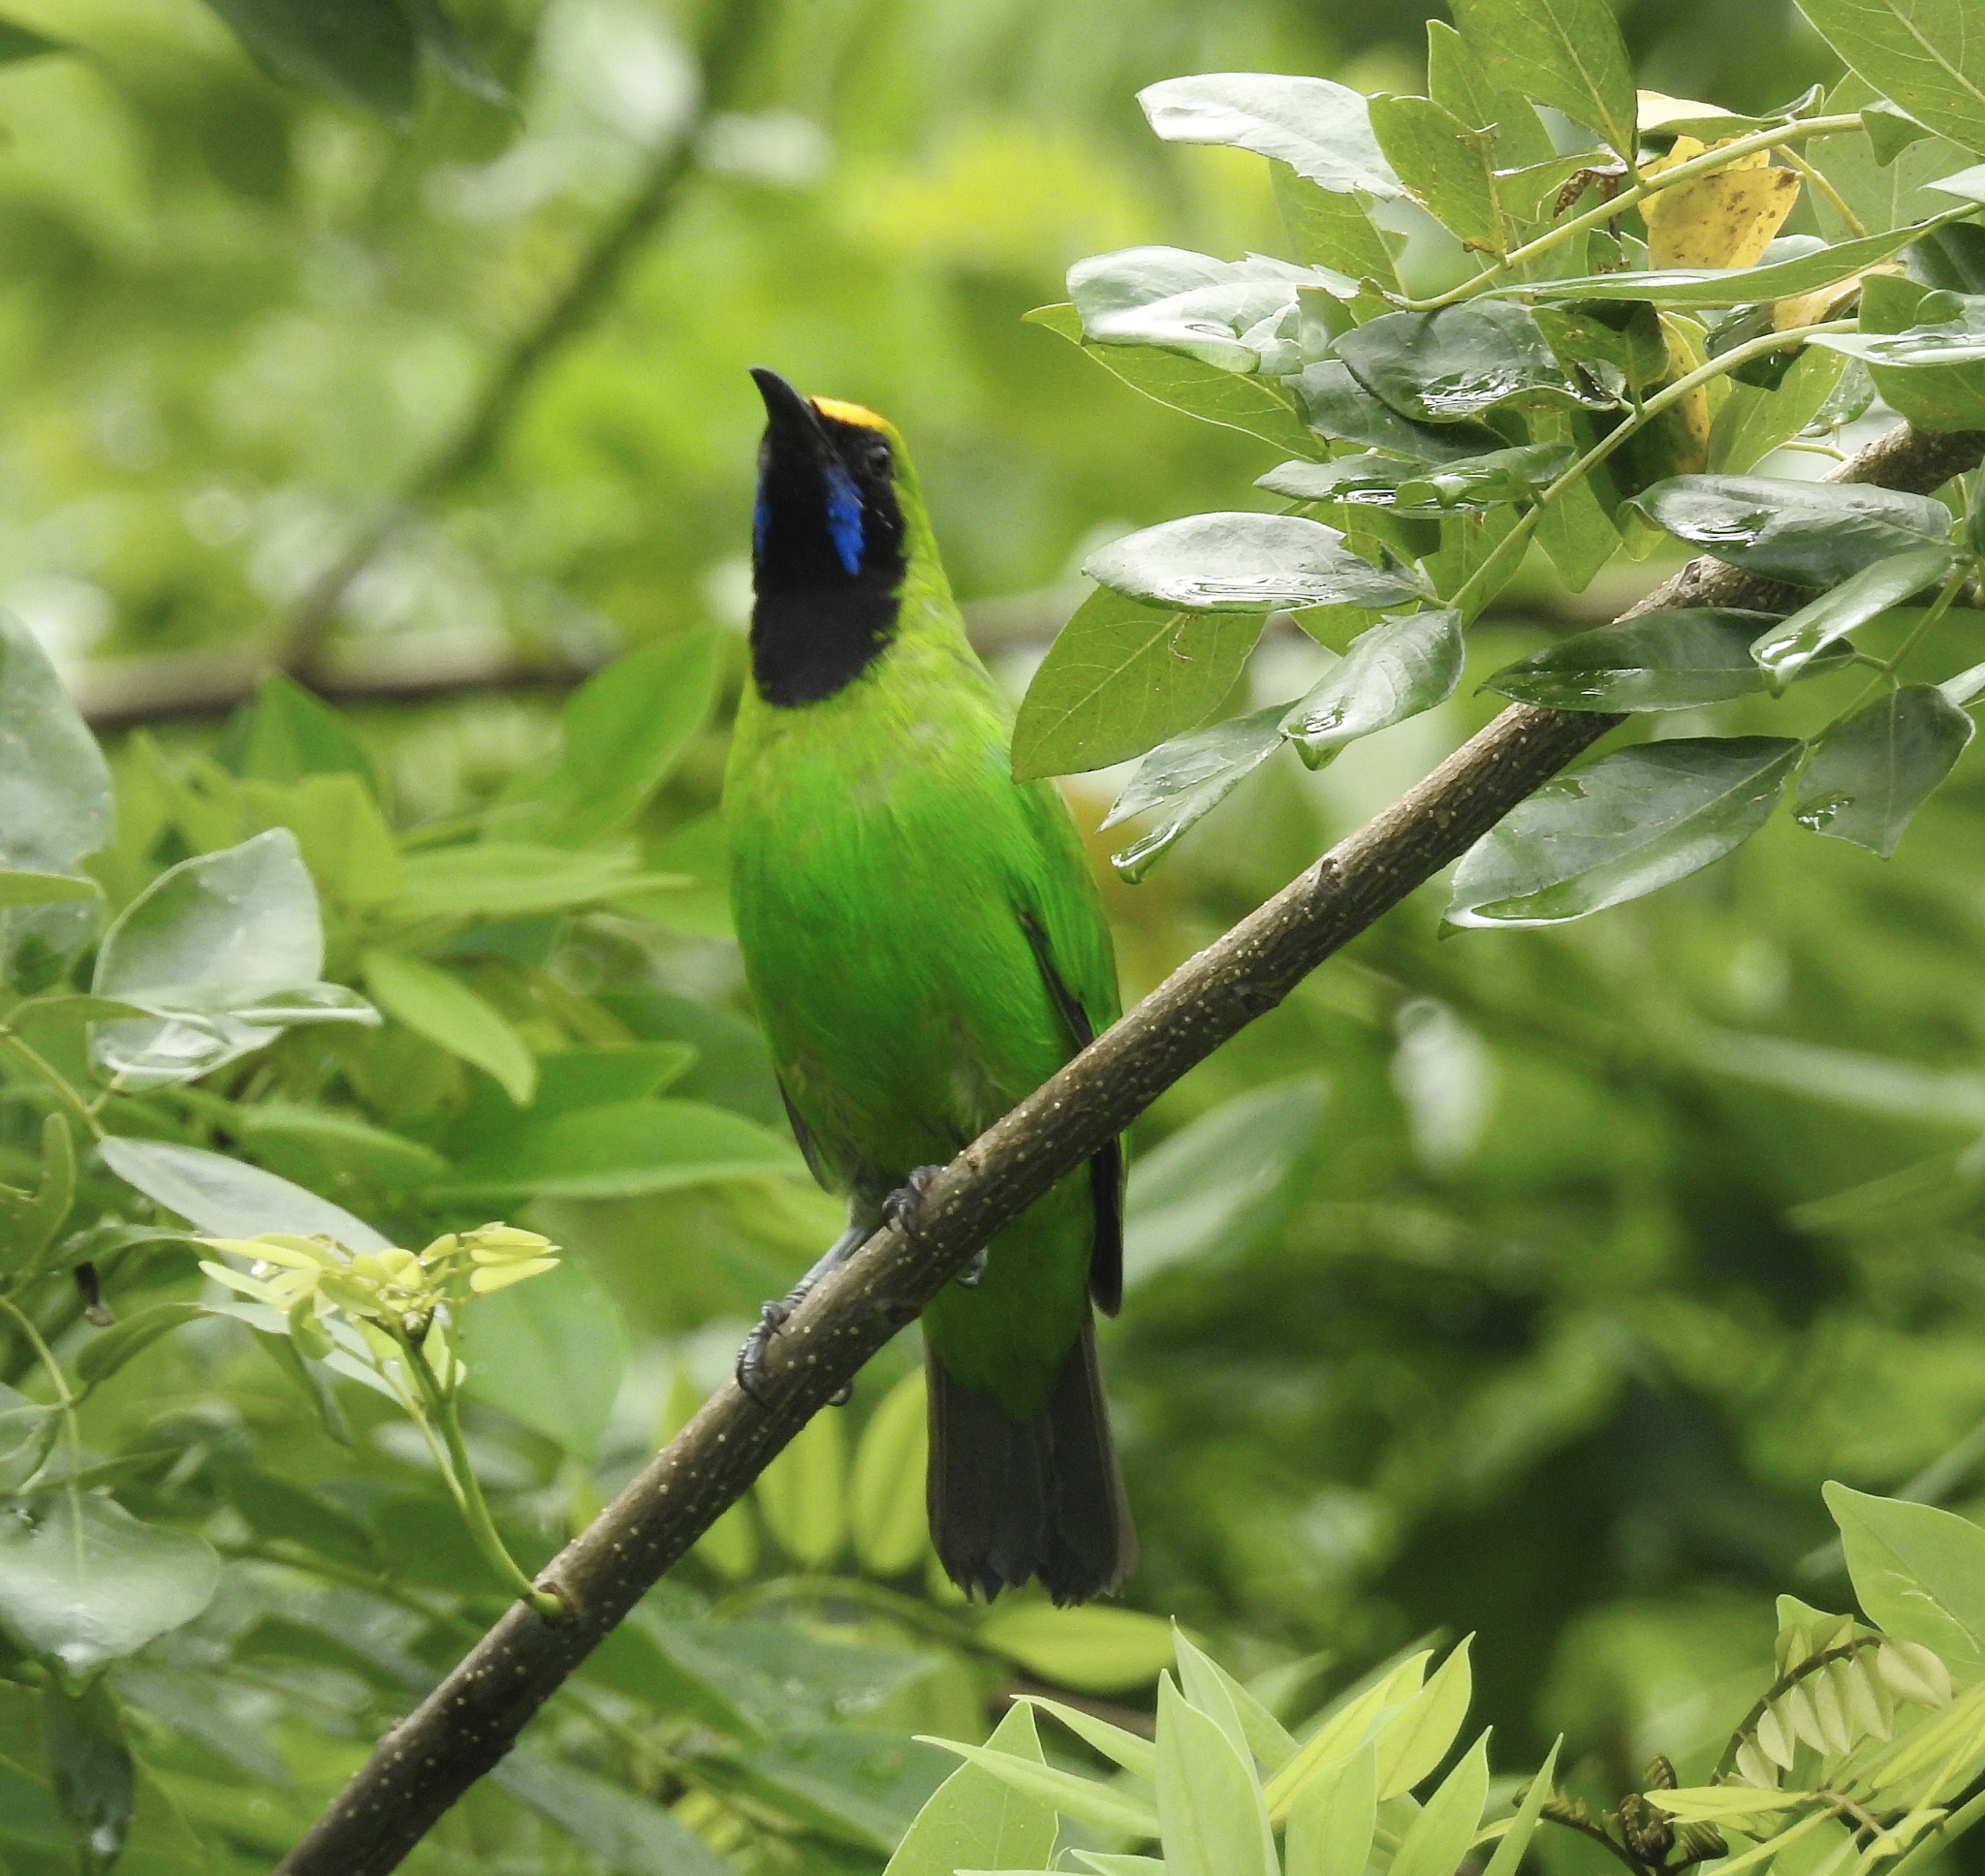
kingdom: Animalia
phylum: Chordata
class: Aves
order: Passeriformes
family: Chloropseidae
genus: Chloropsis
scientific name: Chloropsis aurifrons
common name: Golden-fronted leafbird
